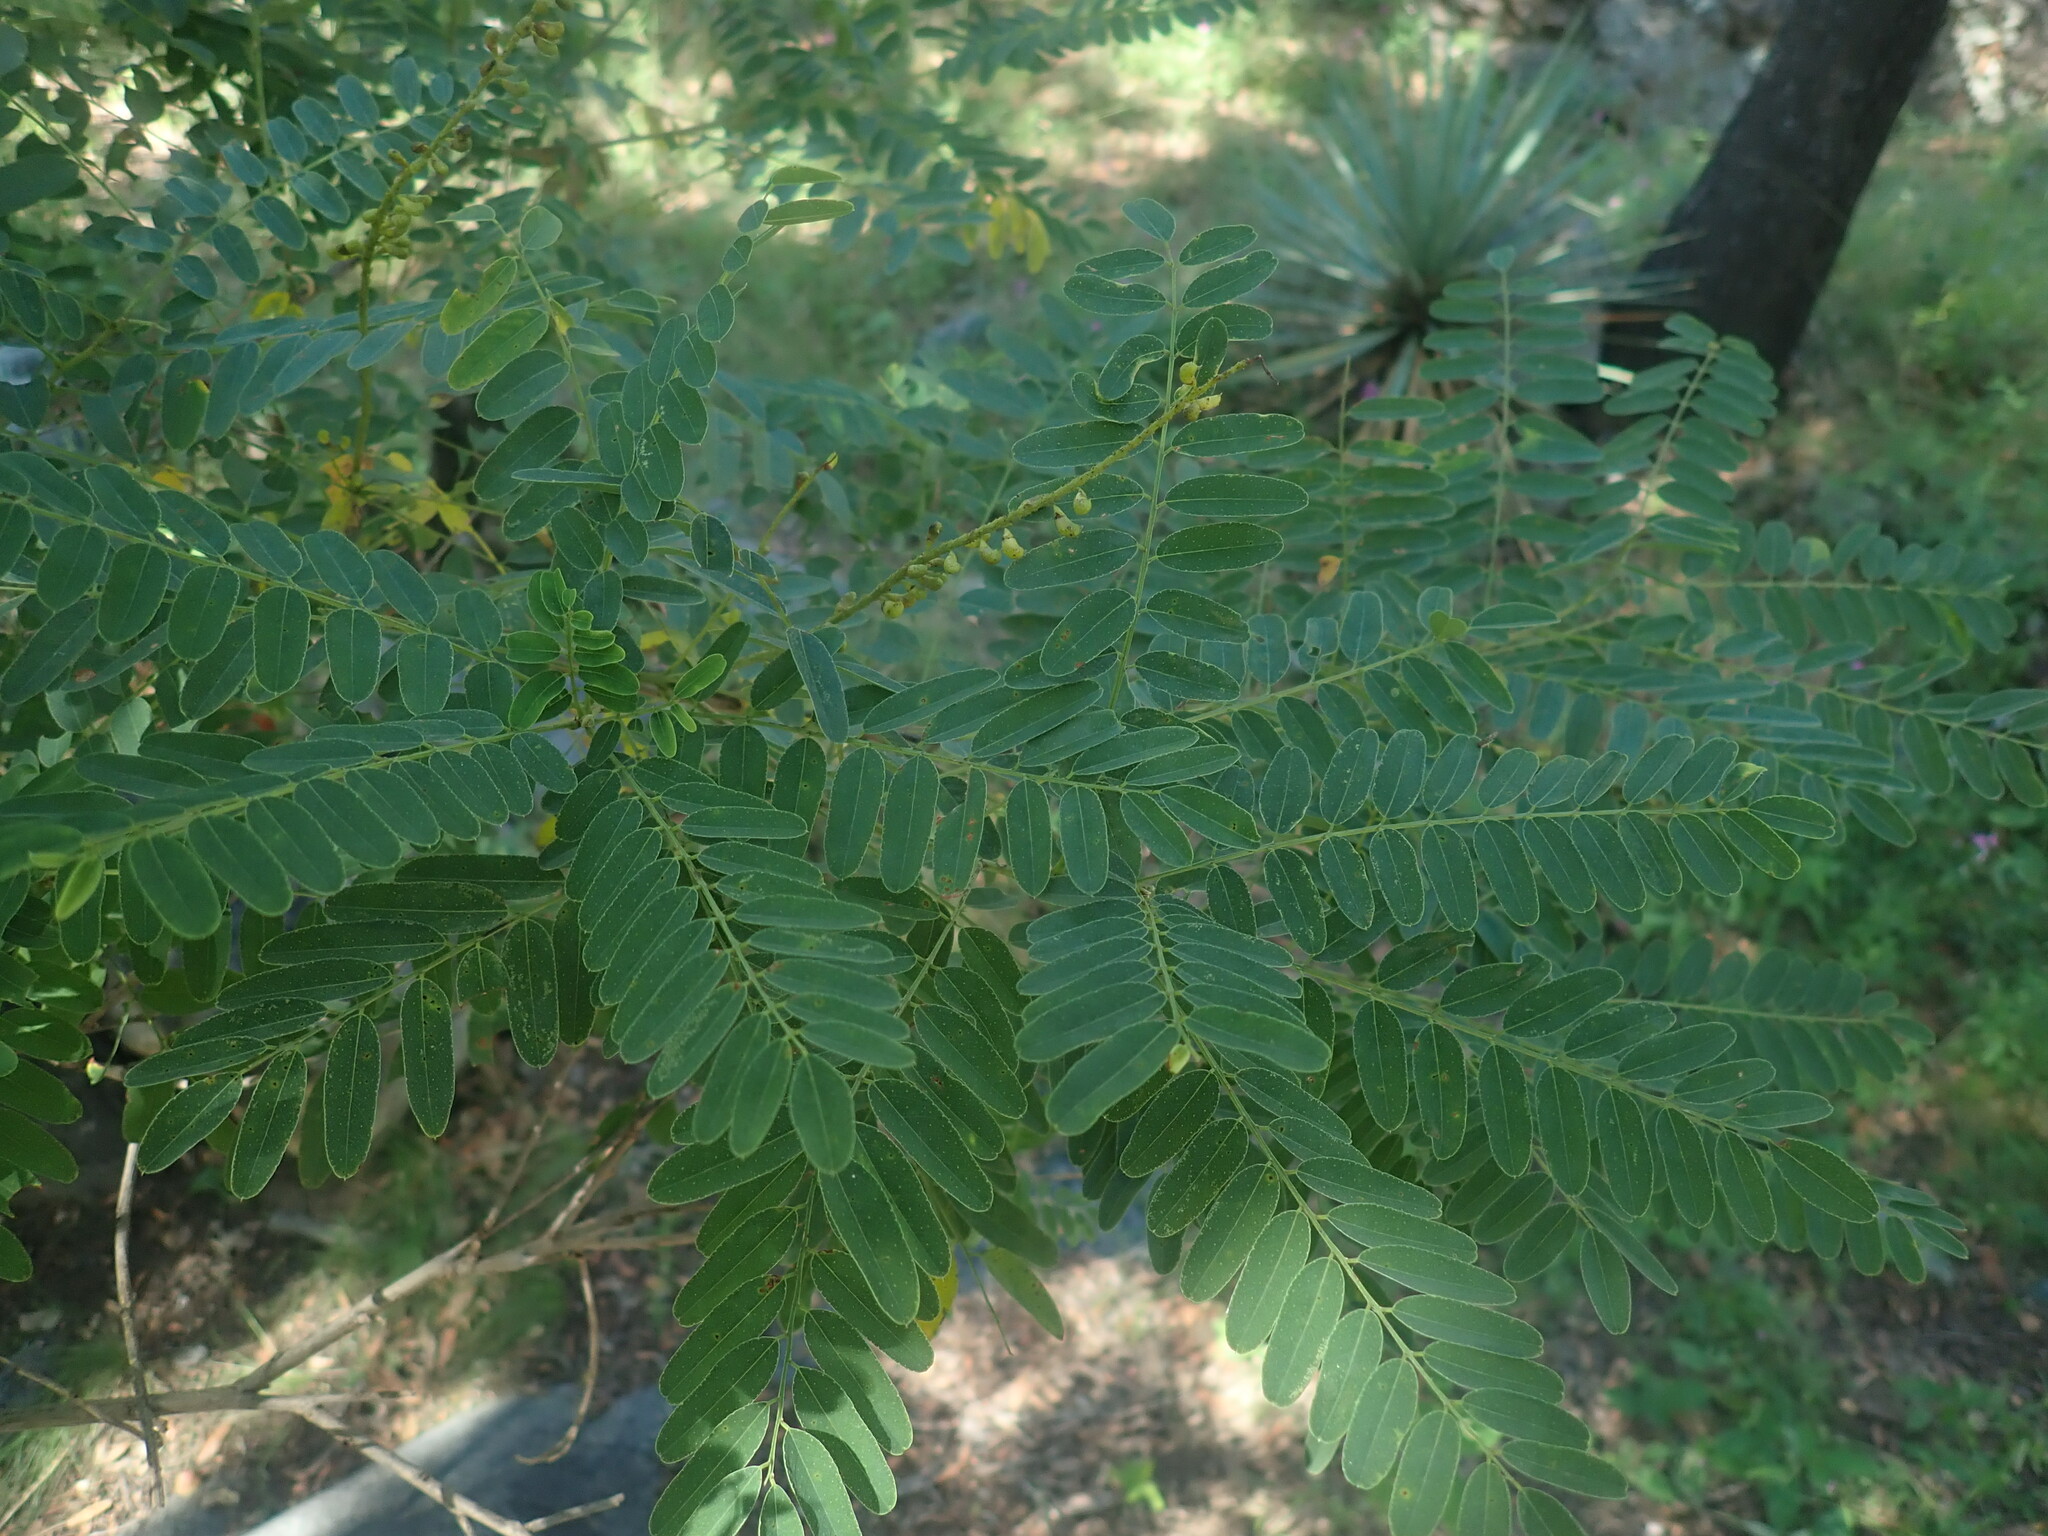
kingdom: Plantae
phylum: Tracheophyta
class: Magnoliopsida
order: Fabales
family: Fabaceae
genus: Amorpha
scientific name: Amorpha fruticosa
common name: False indigo
